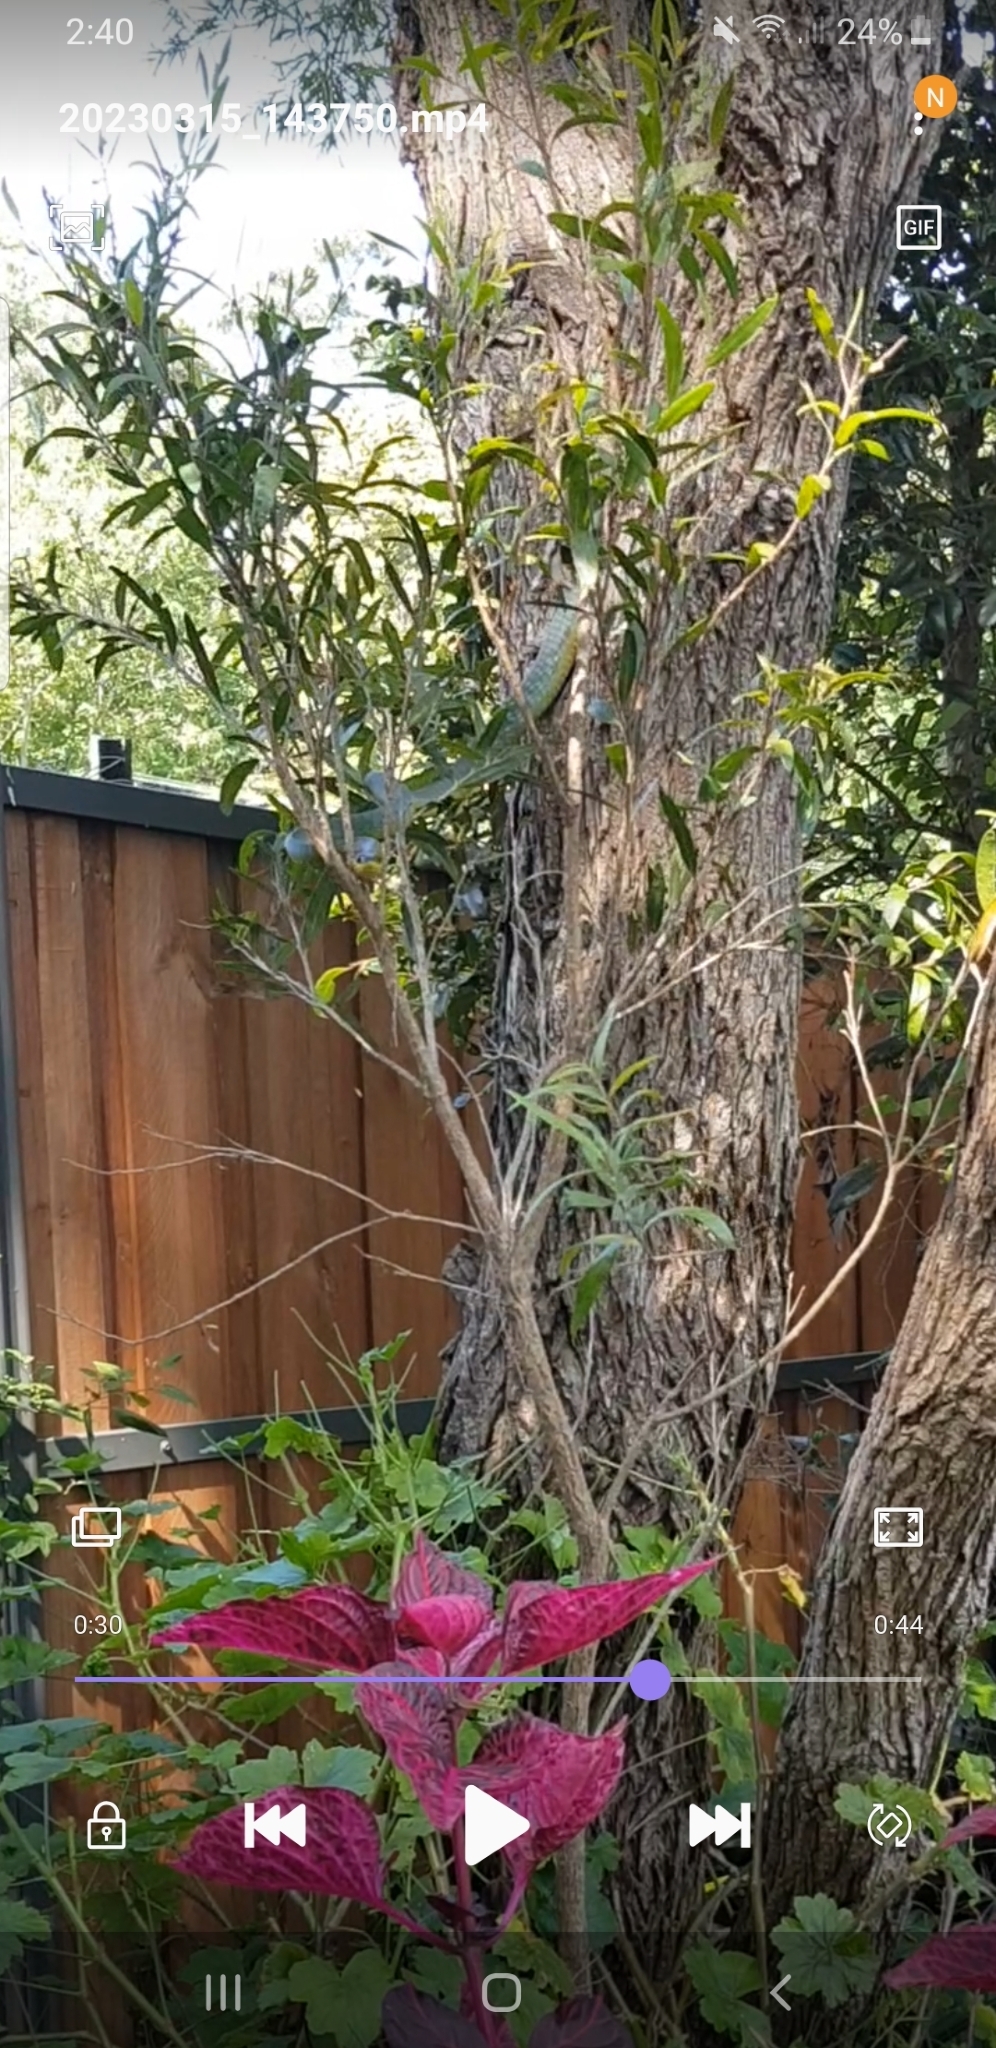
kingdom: Animalia
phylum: Chordata
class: Squamata
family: Colubridae
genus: Dendrelaphis
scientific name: Dendrelaphis punctulatus
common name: Common tree snake
